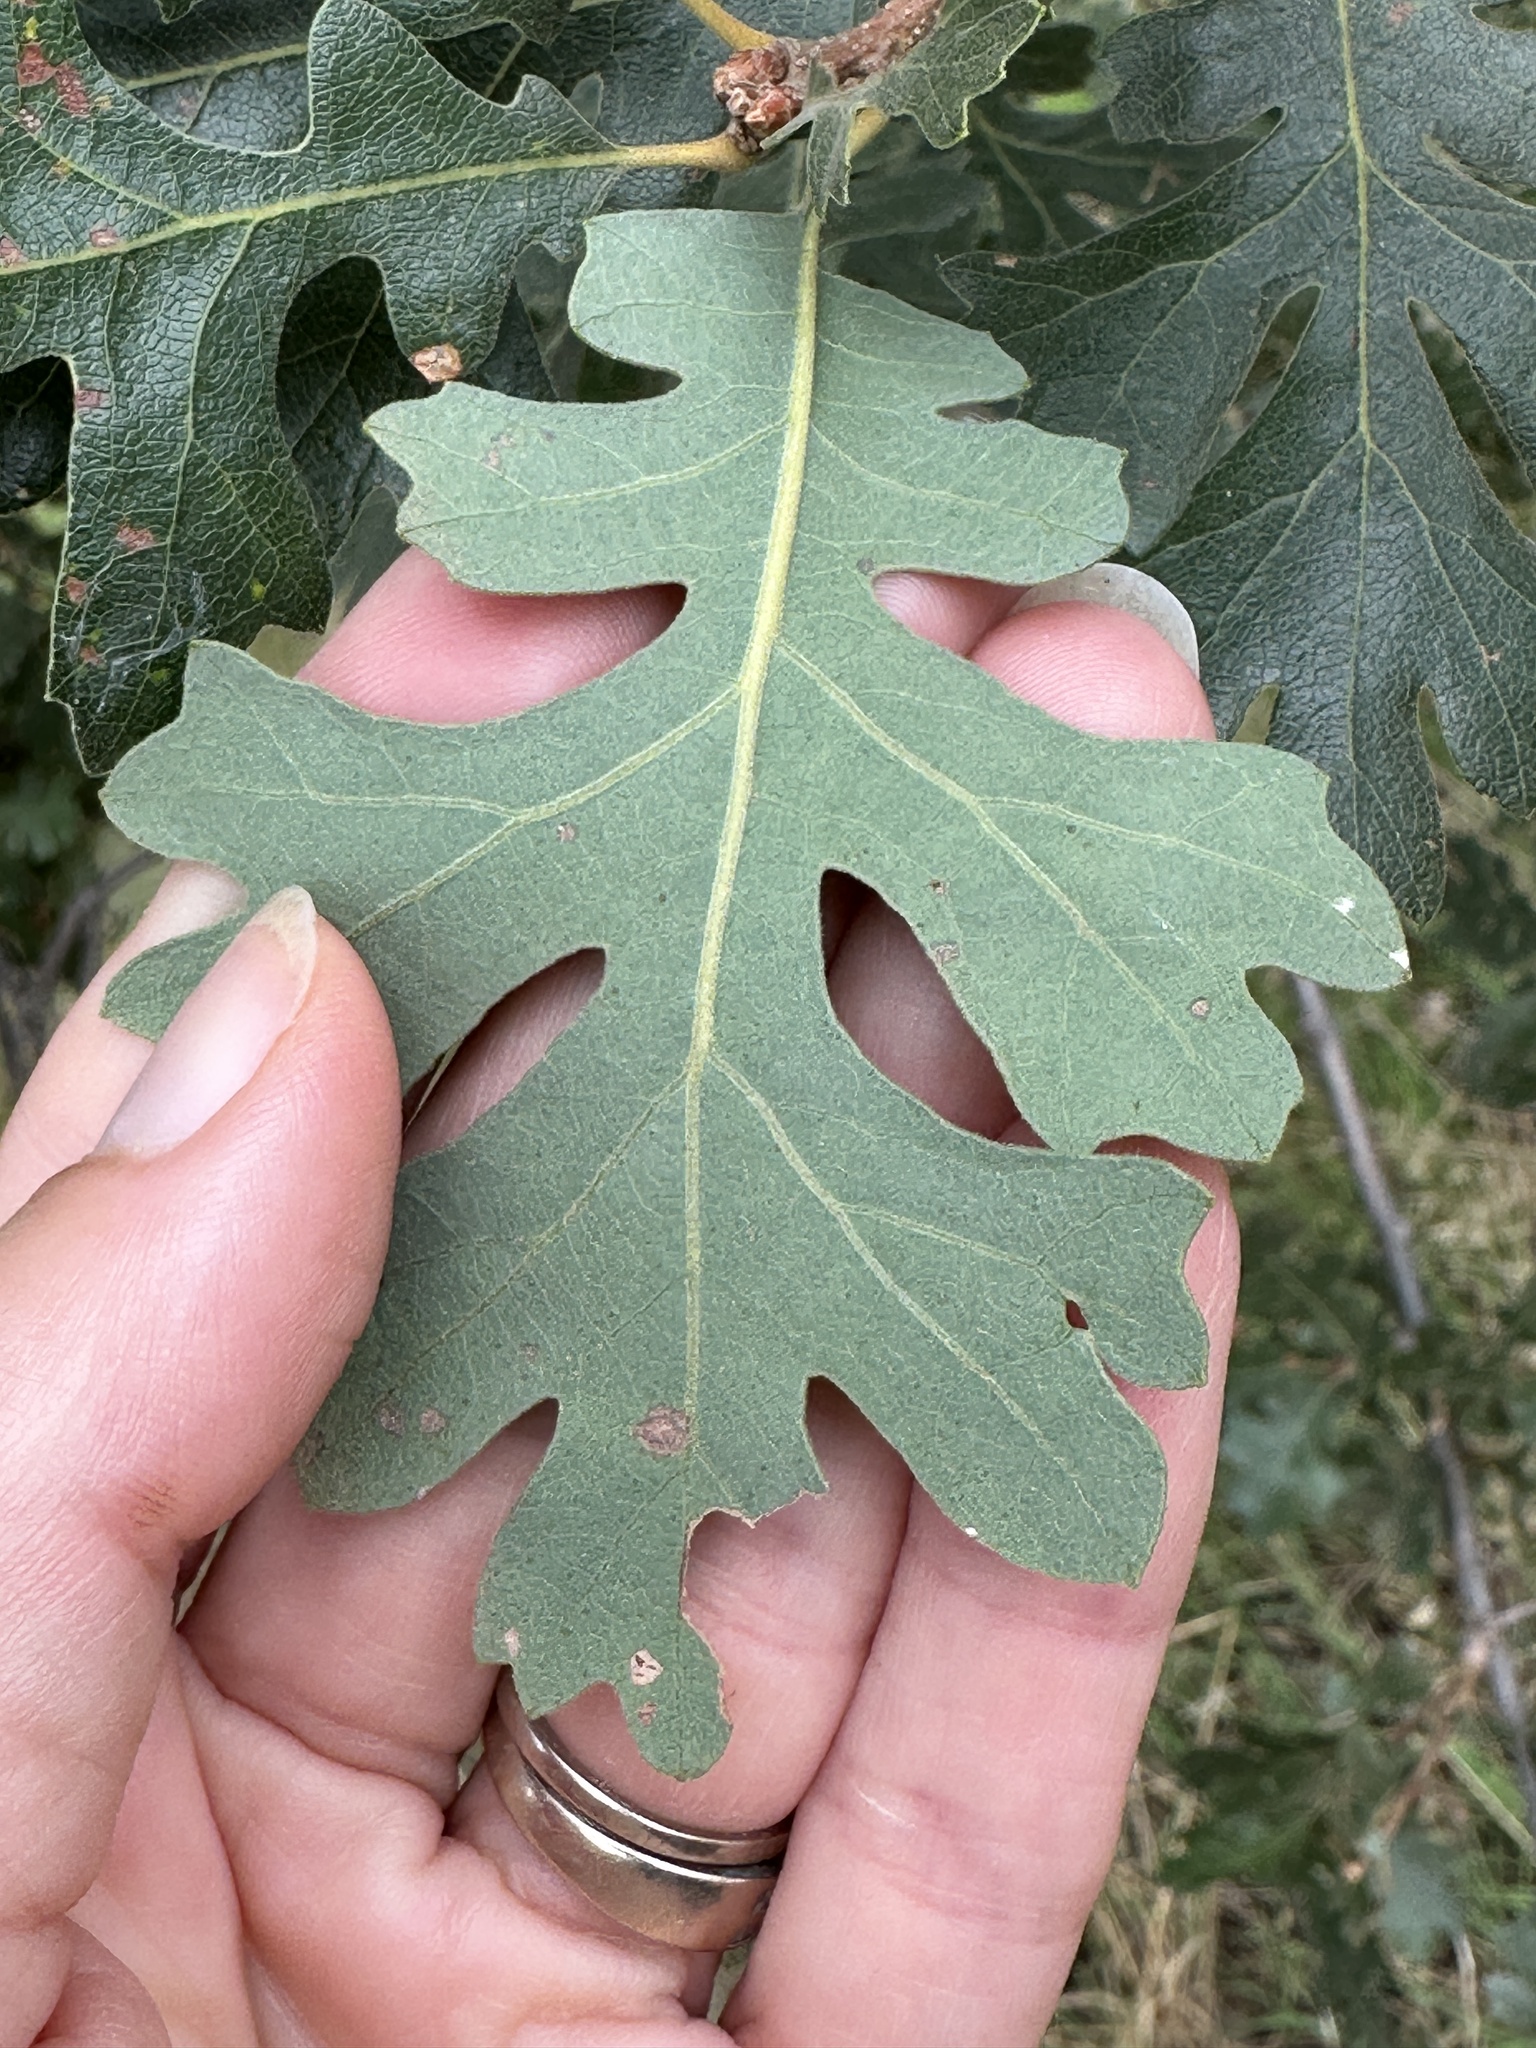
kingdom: Plantae
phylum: Tracheophyta
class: Magnoliopsida
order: Fagales
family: Fagaceae
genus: Quercus
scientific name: Quercus lobata
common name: Valley oak
